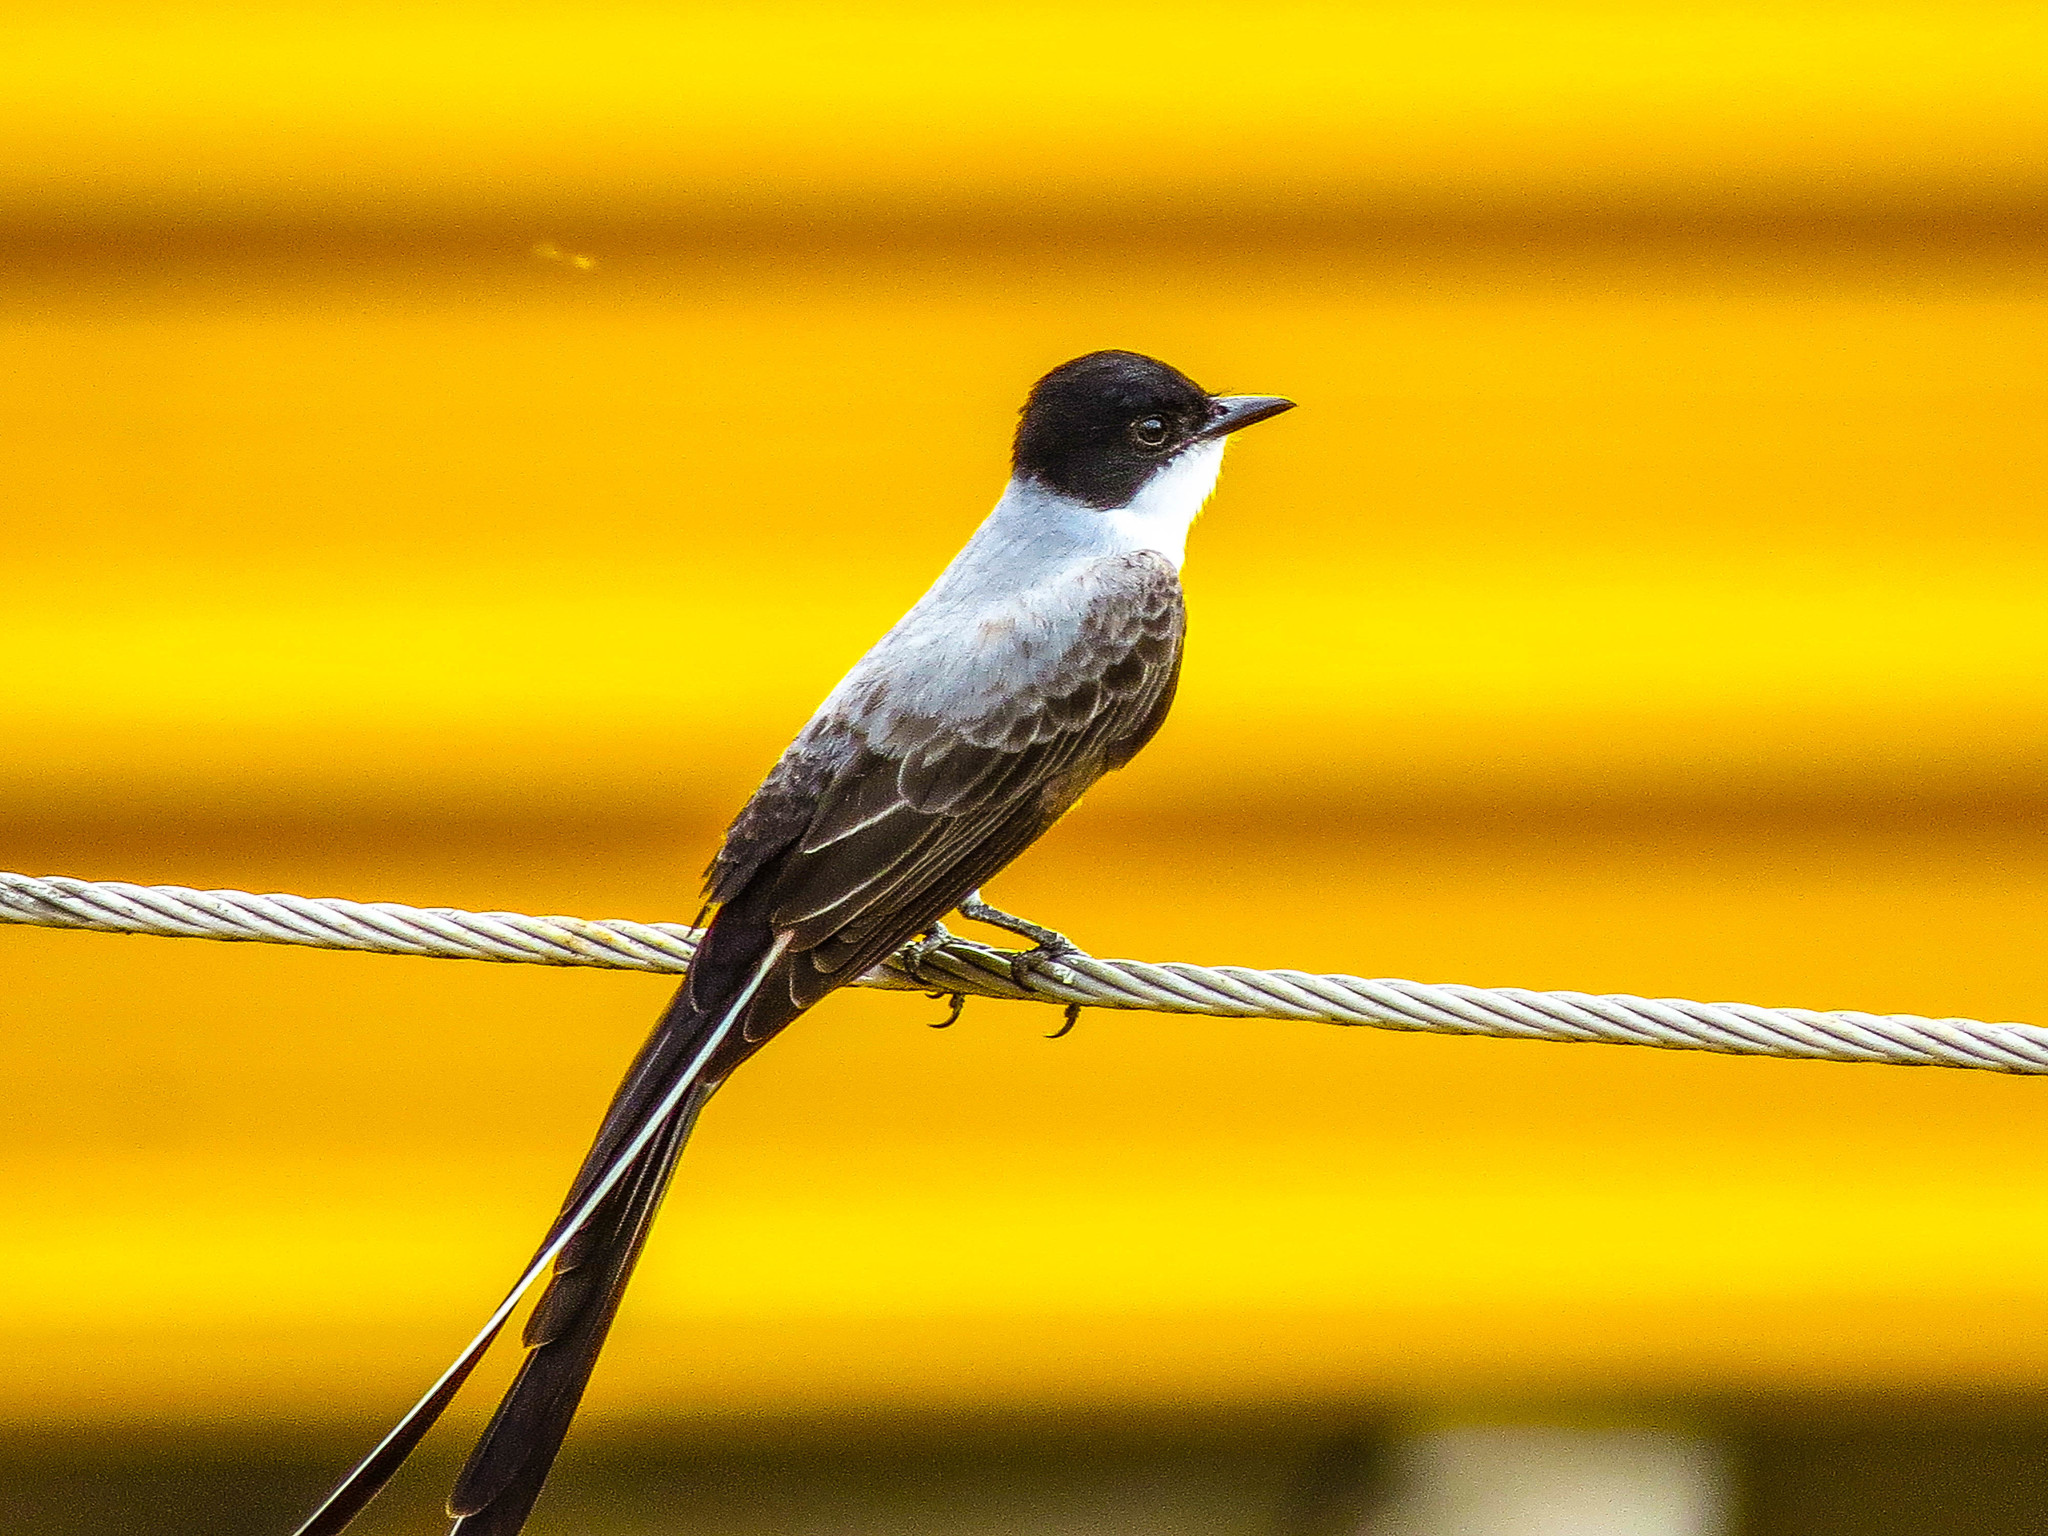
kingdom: Animalia
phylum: Chordata
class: Aves
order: Passeriformes
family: Tyrannidae
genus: Tyrannus
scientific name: Tyrannus savana
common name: Fork-tailed flycatcher
